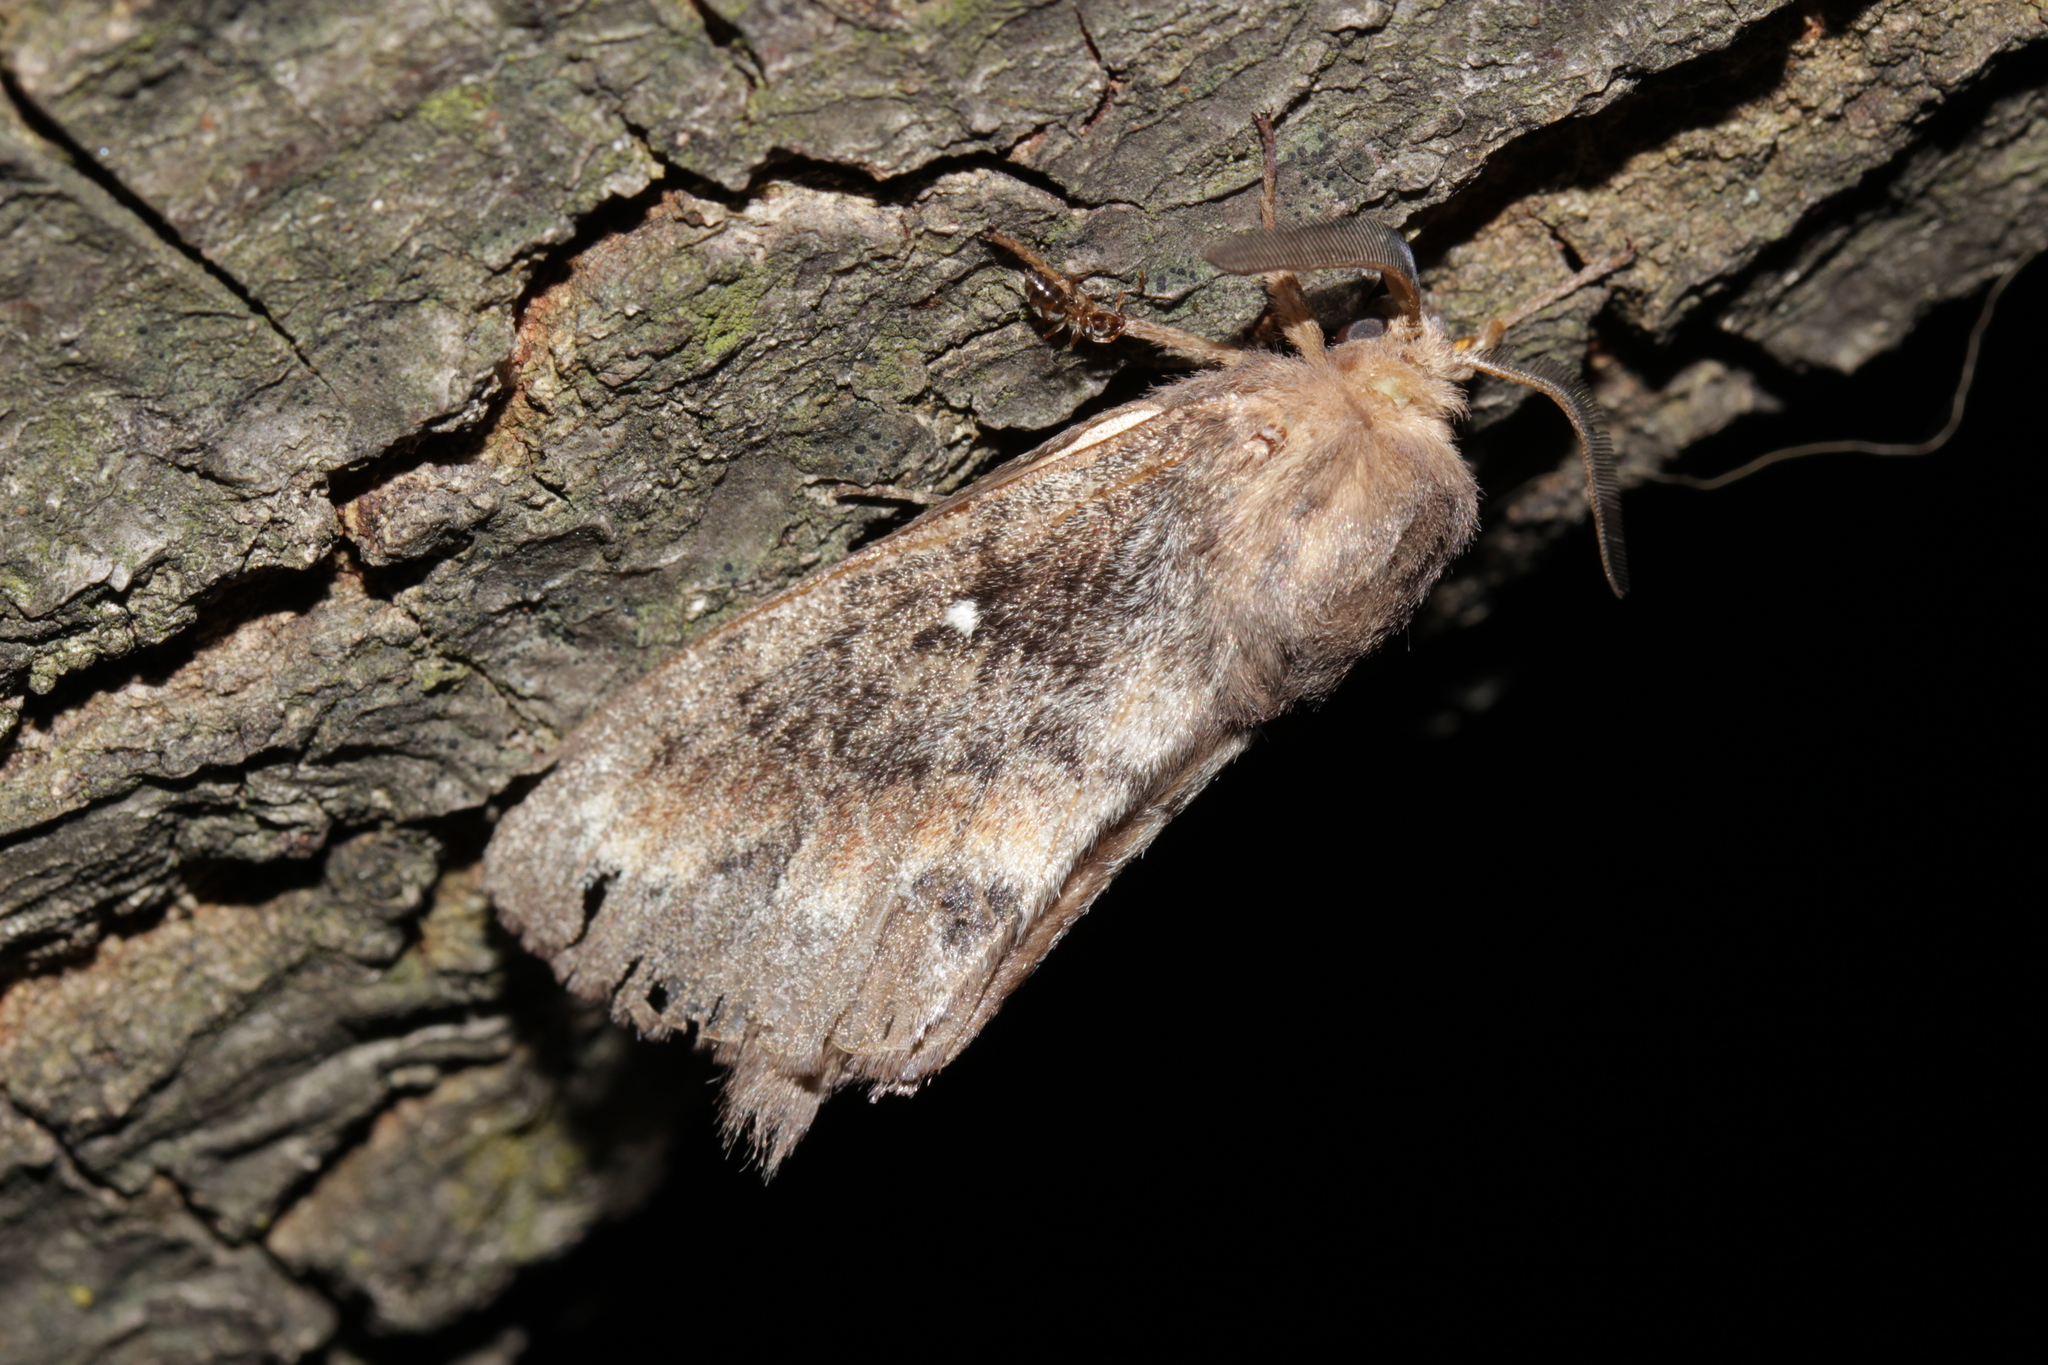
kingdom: Animalia
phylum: Arthropoda
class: Insecta
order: Lepidoptera
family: Lasiocampidae
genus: Dendrolimus
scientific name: Dendrolimus pini
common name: Pine-tree lappet
